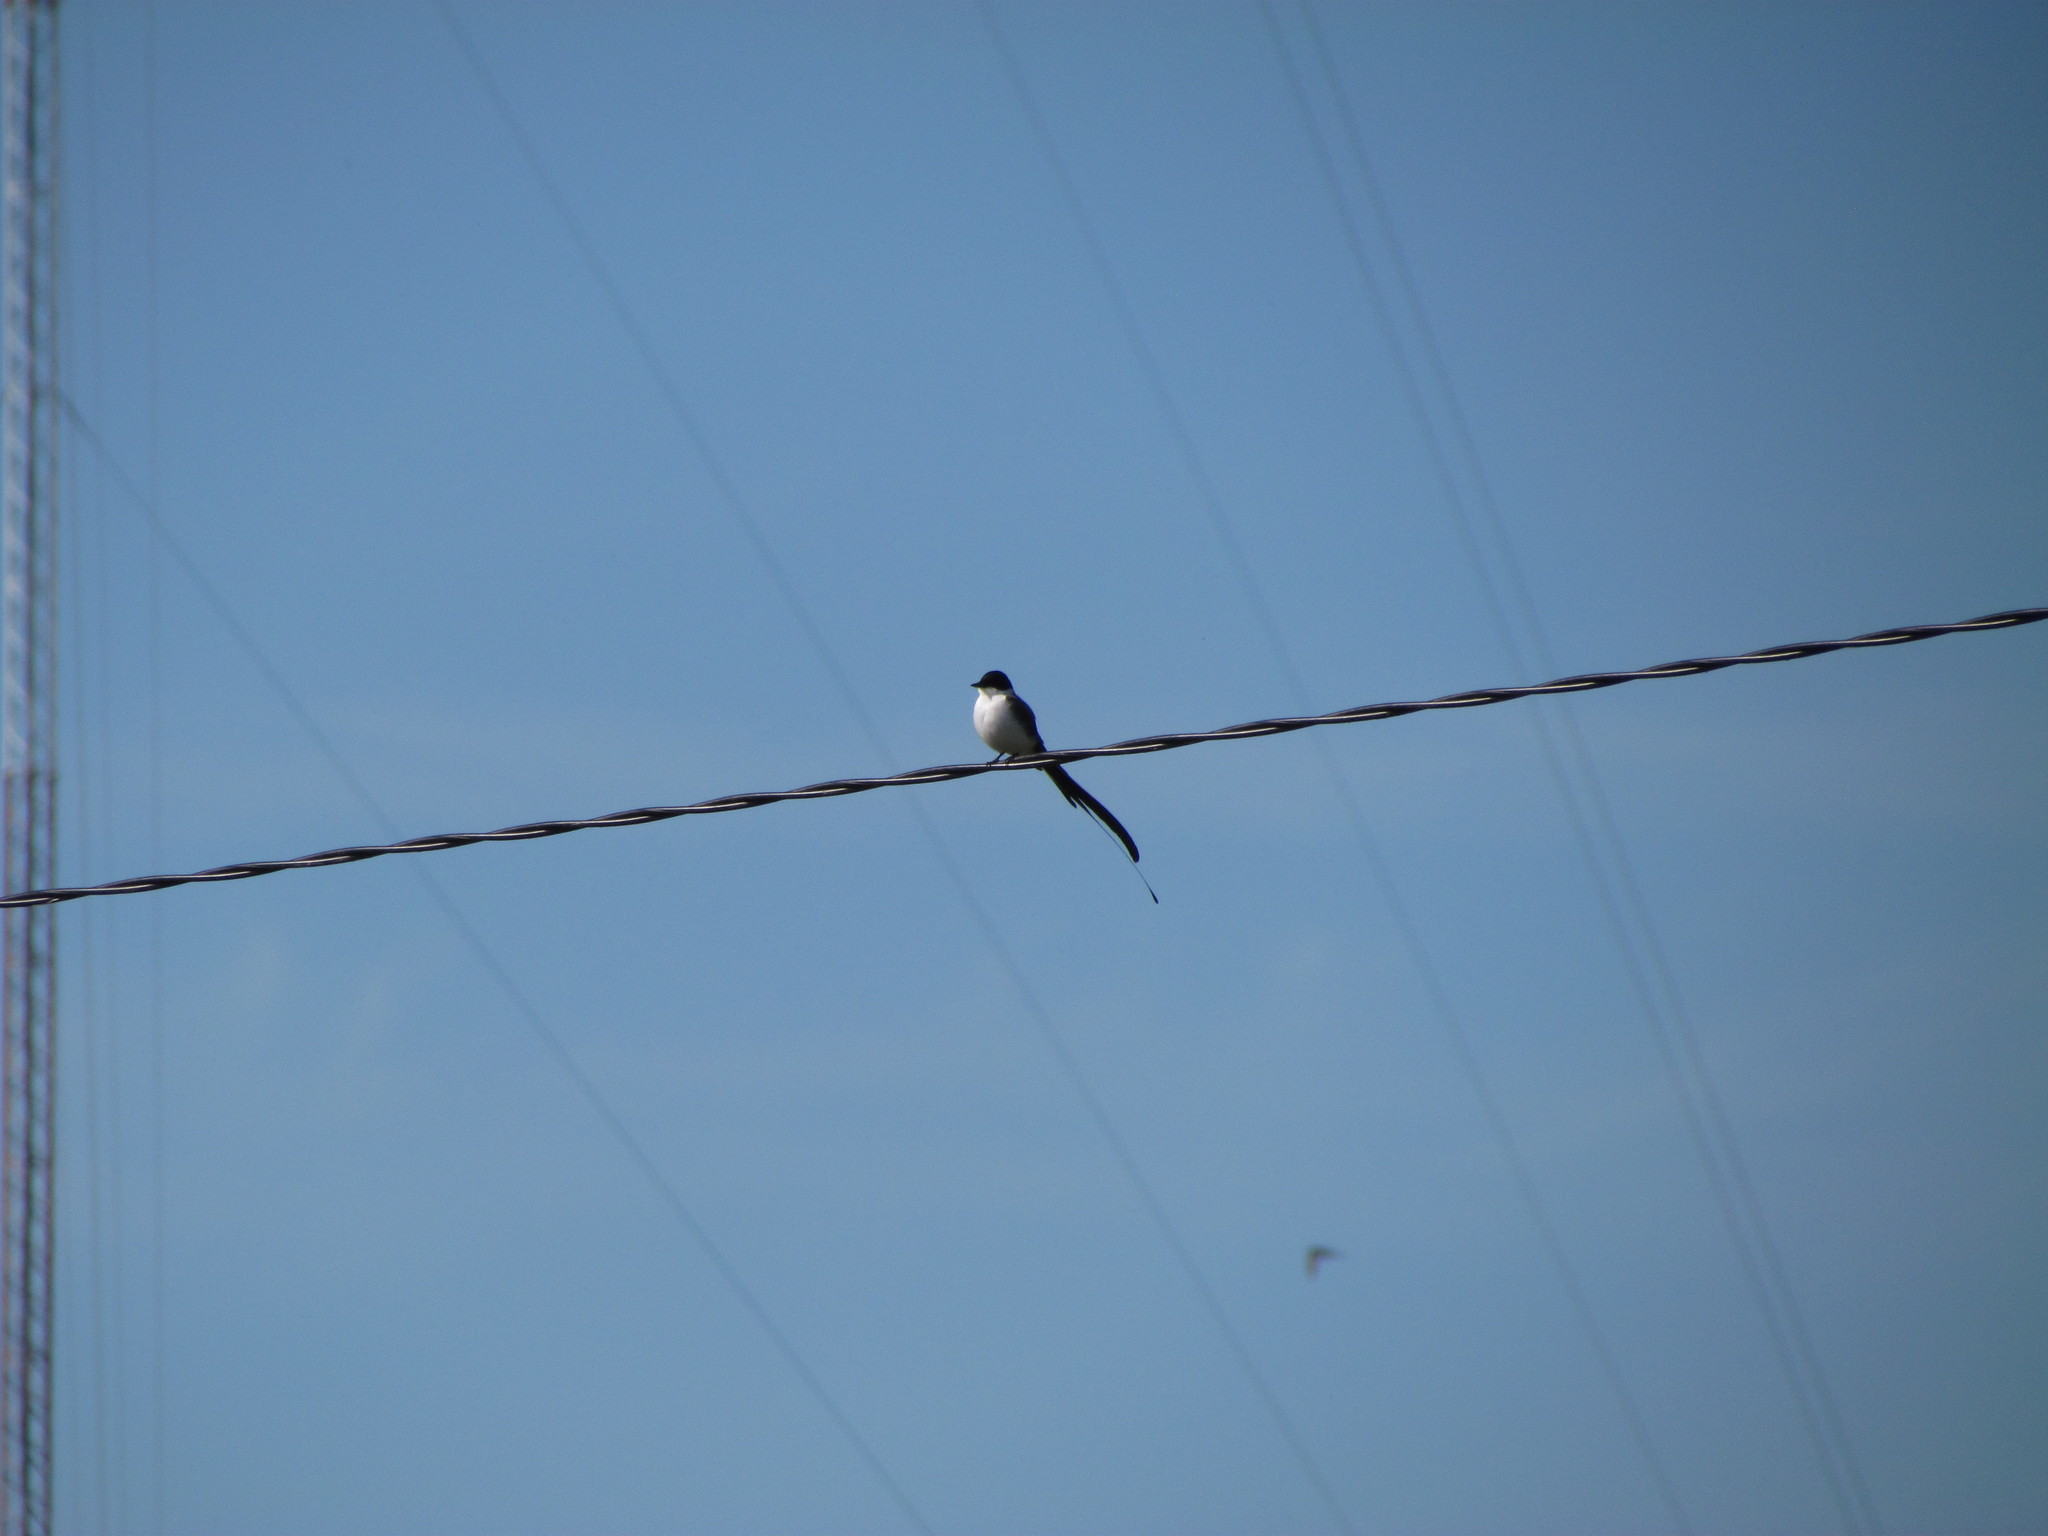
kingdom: Animalia
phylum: Chordata
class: Aves
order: Passeriformes
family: Tyrannidae
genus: Tyrannus
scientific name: Tyrannus savana
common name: Fork-tailed flycatcher
